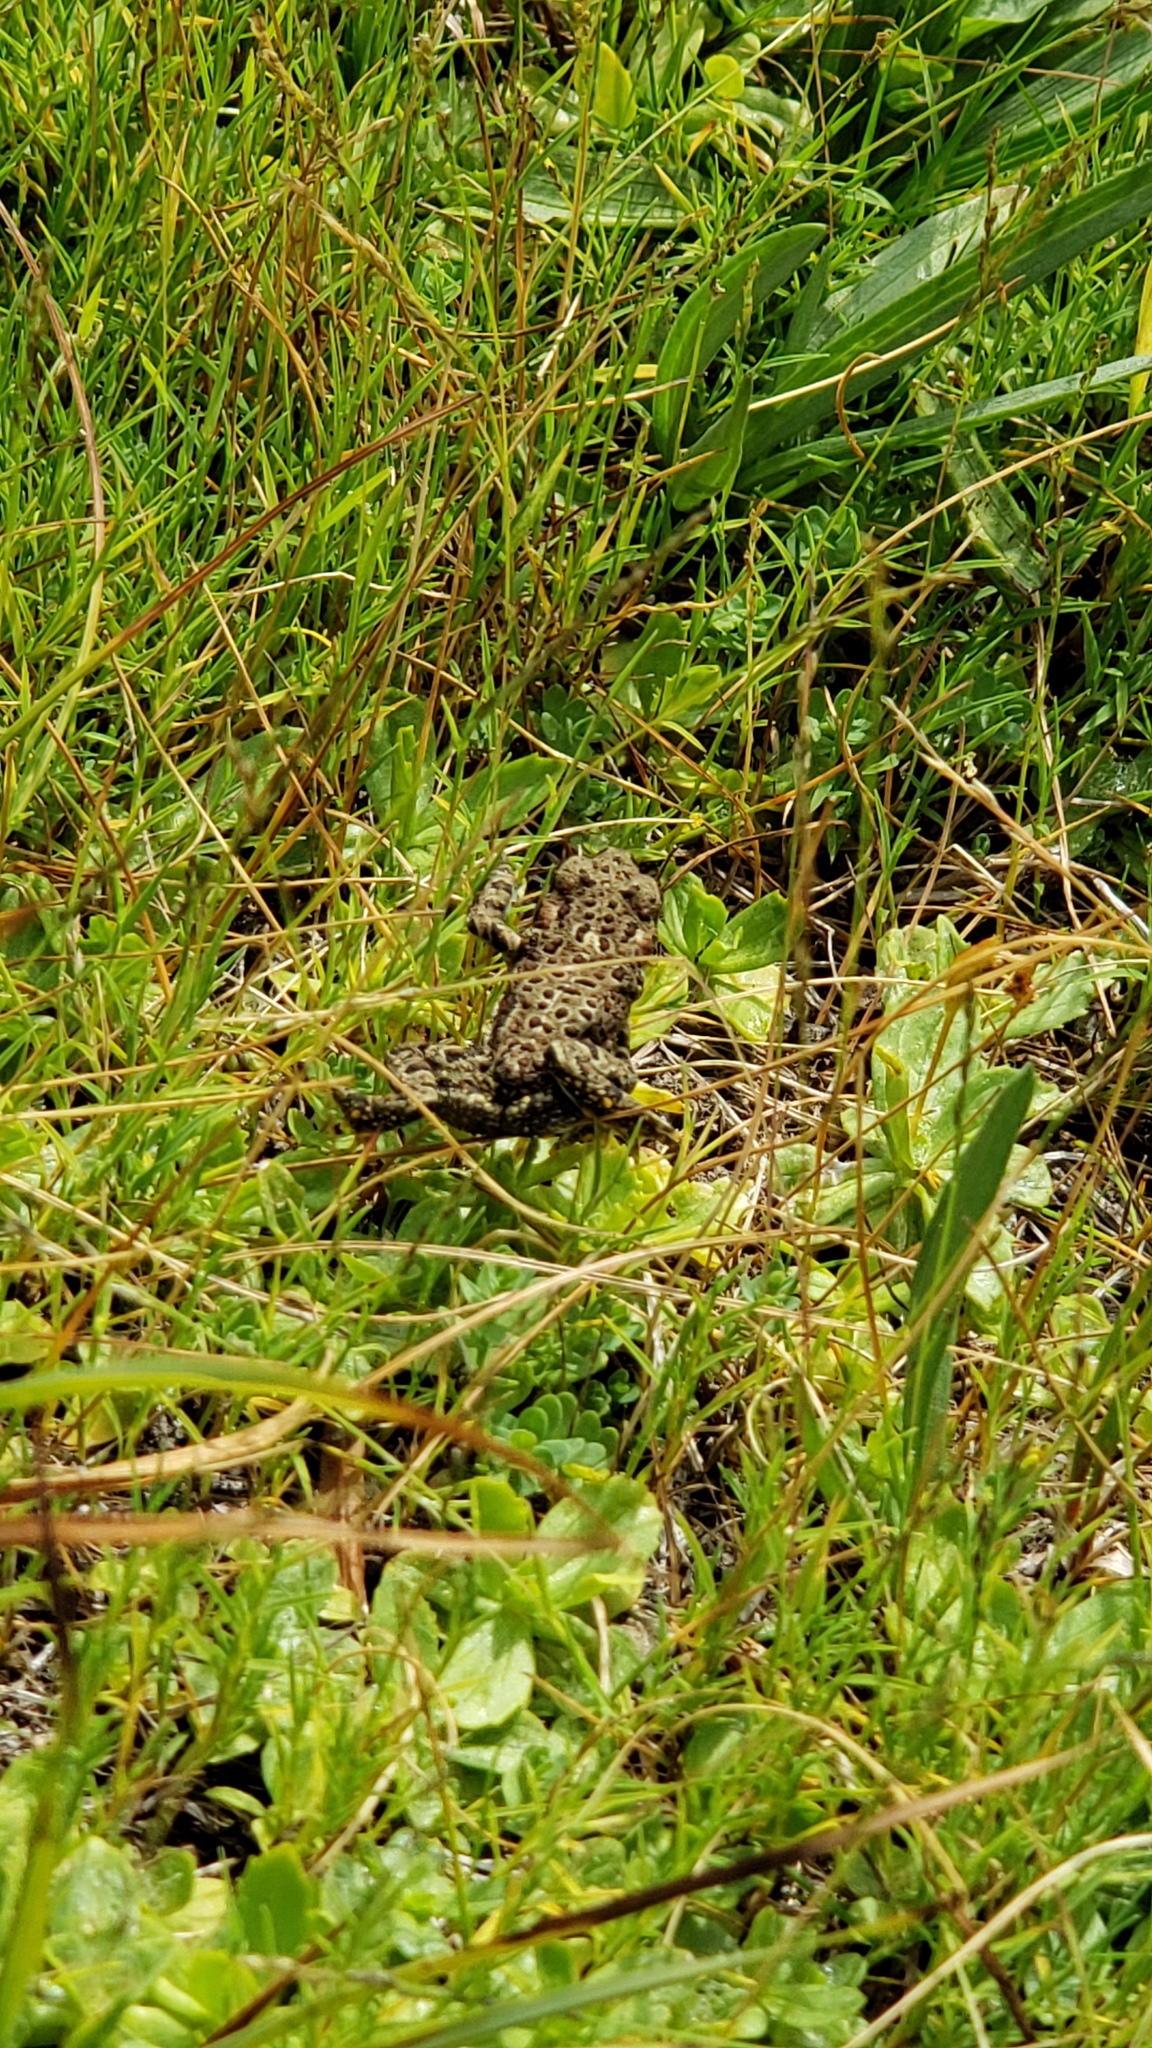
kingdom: Animalia
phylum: Chordata
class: Amphibia
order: Anura
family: Bufonidae
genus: Anaxyrus
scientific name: Anaxyrus boreas
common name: Western toad
